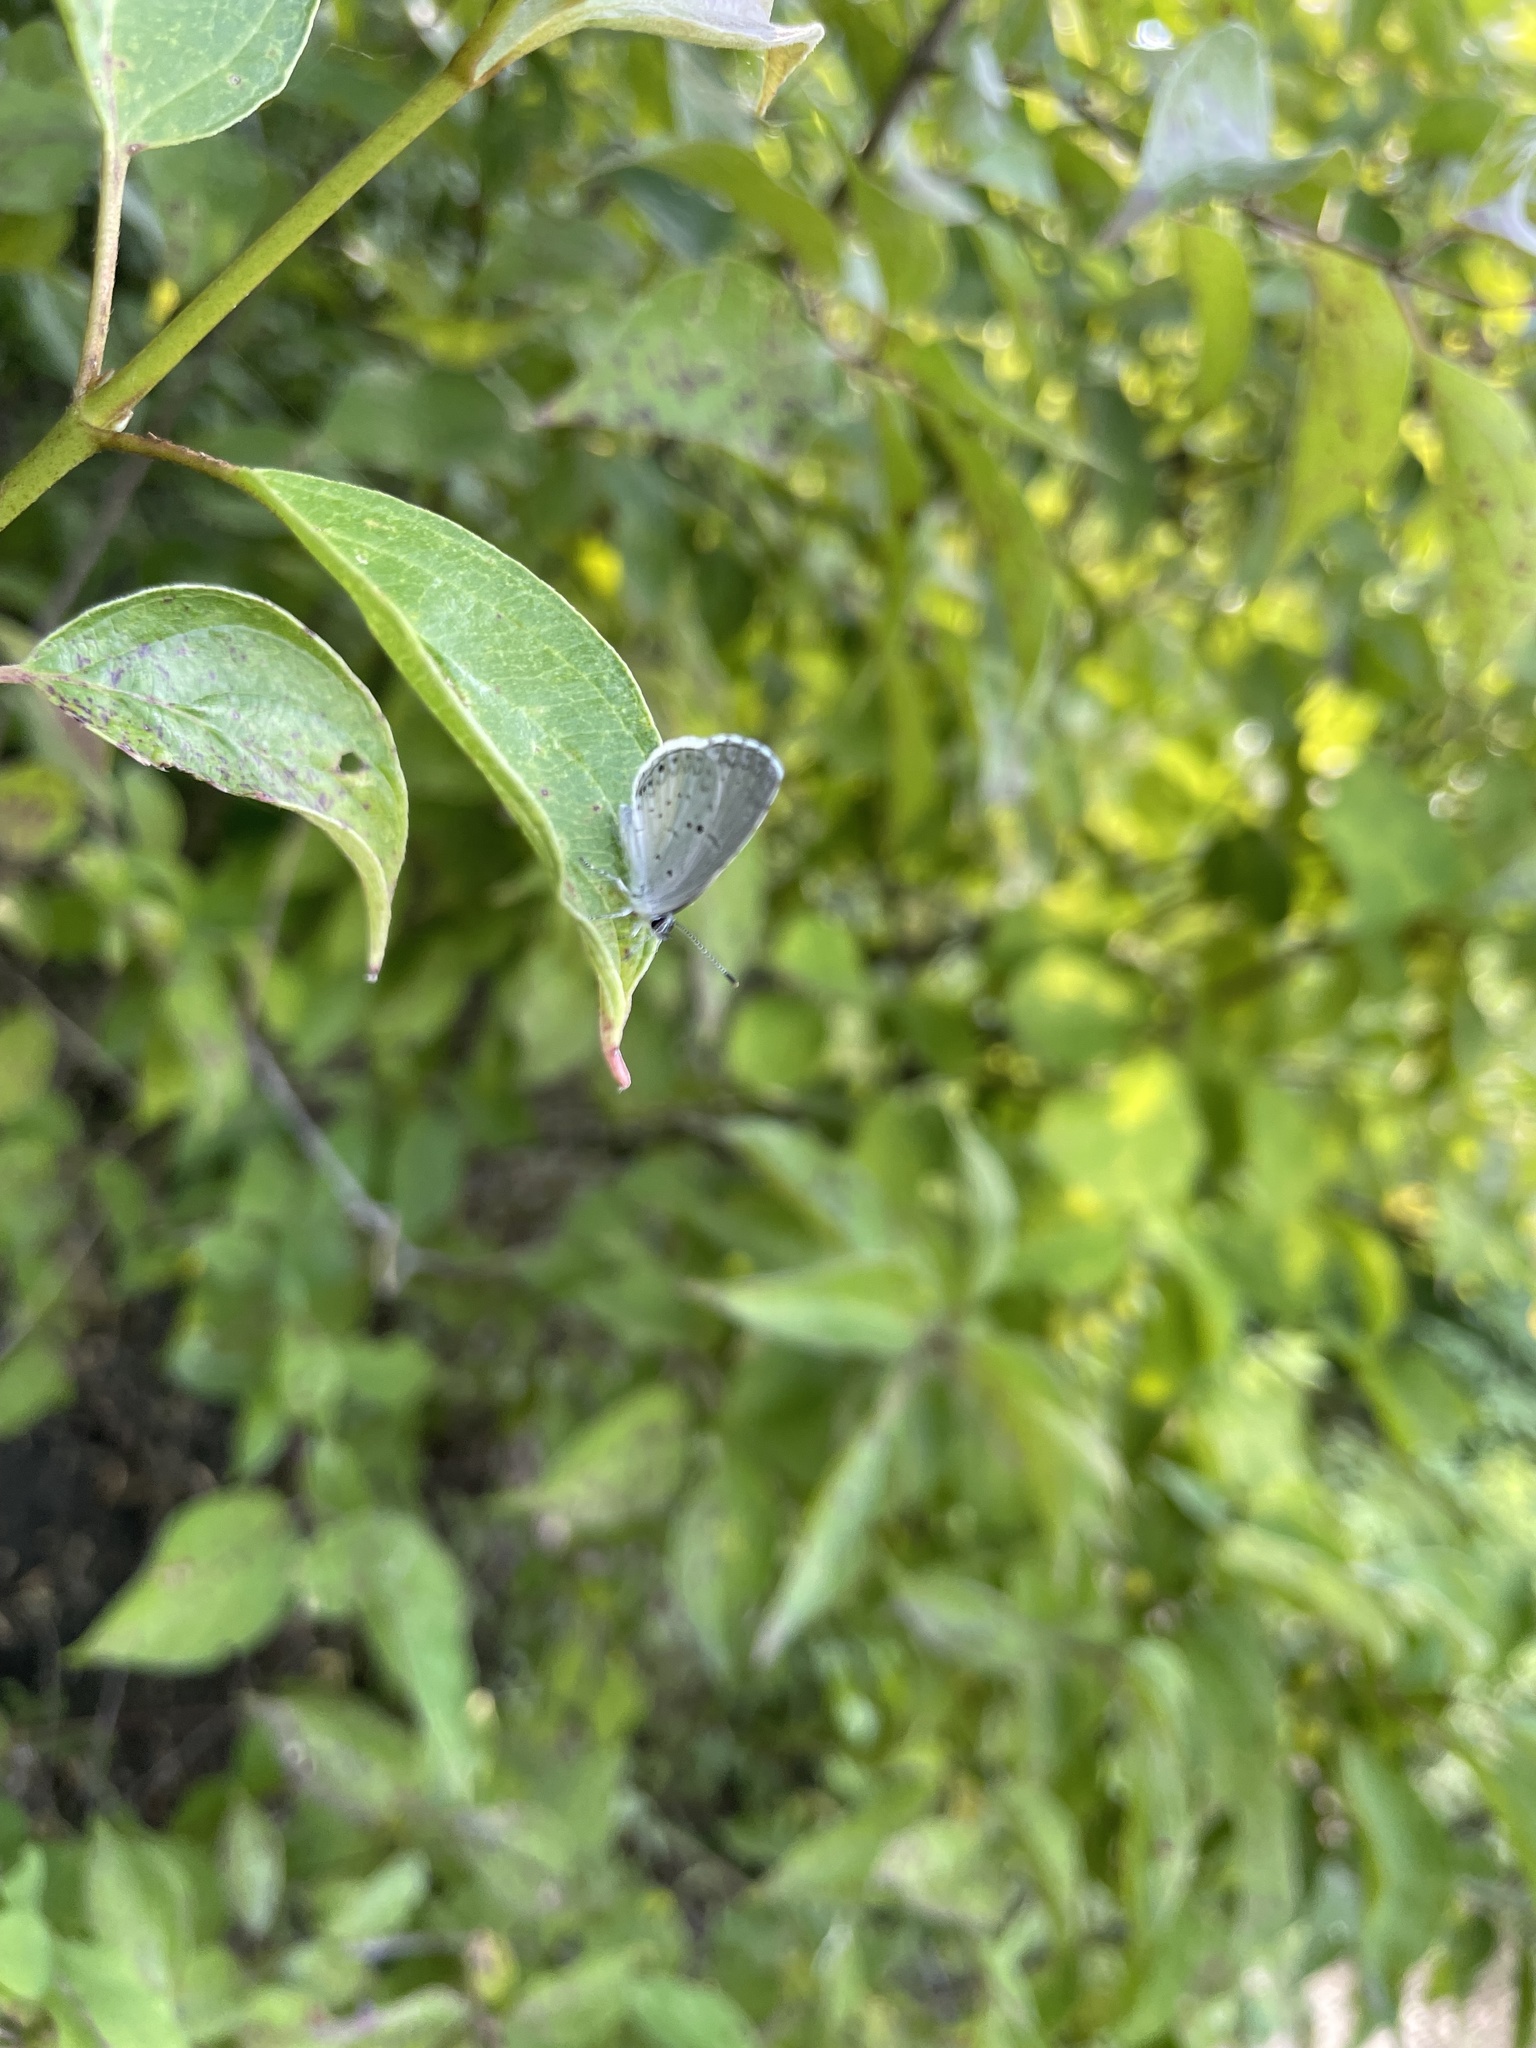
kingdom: Animalia
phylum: Arthropoda
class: Insecta
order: Lepidoptera
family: Lycaenidae
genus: Cyaniris
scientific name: Cyaniris neglecta
